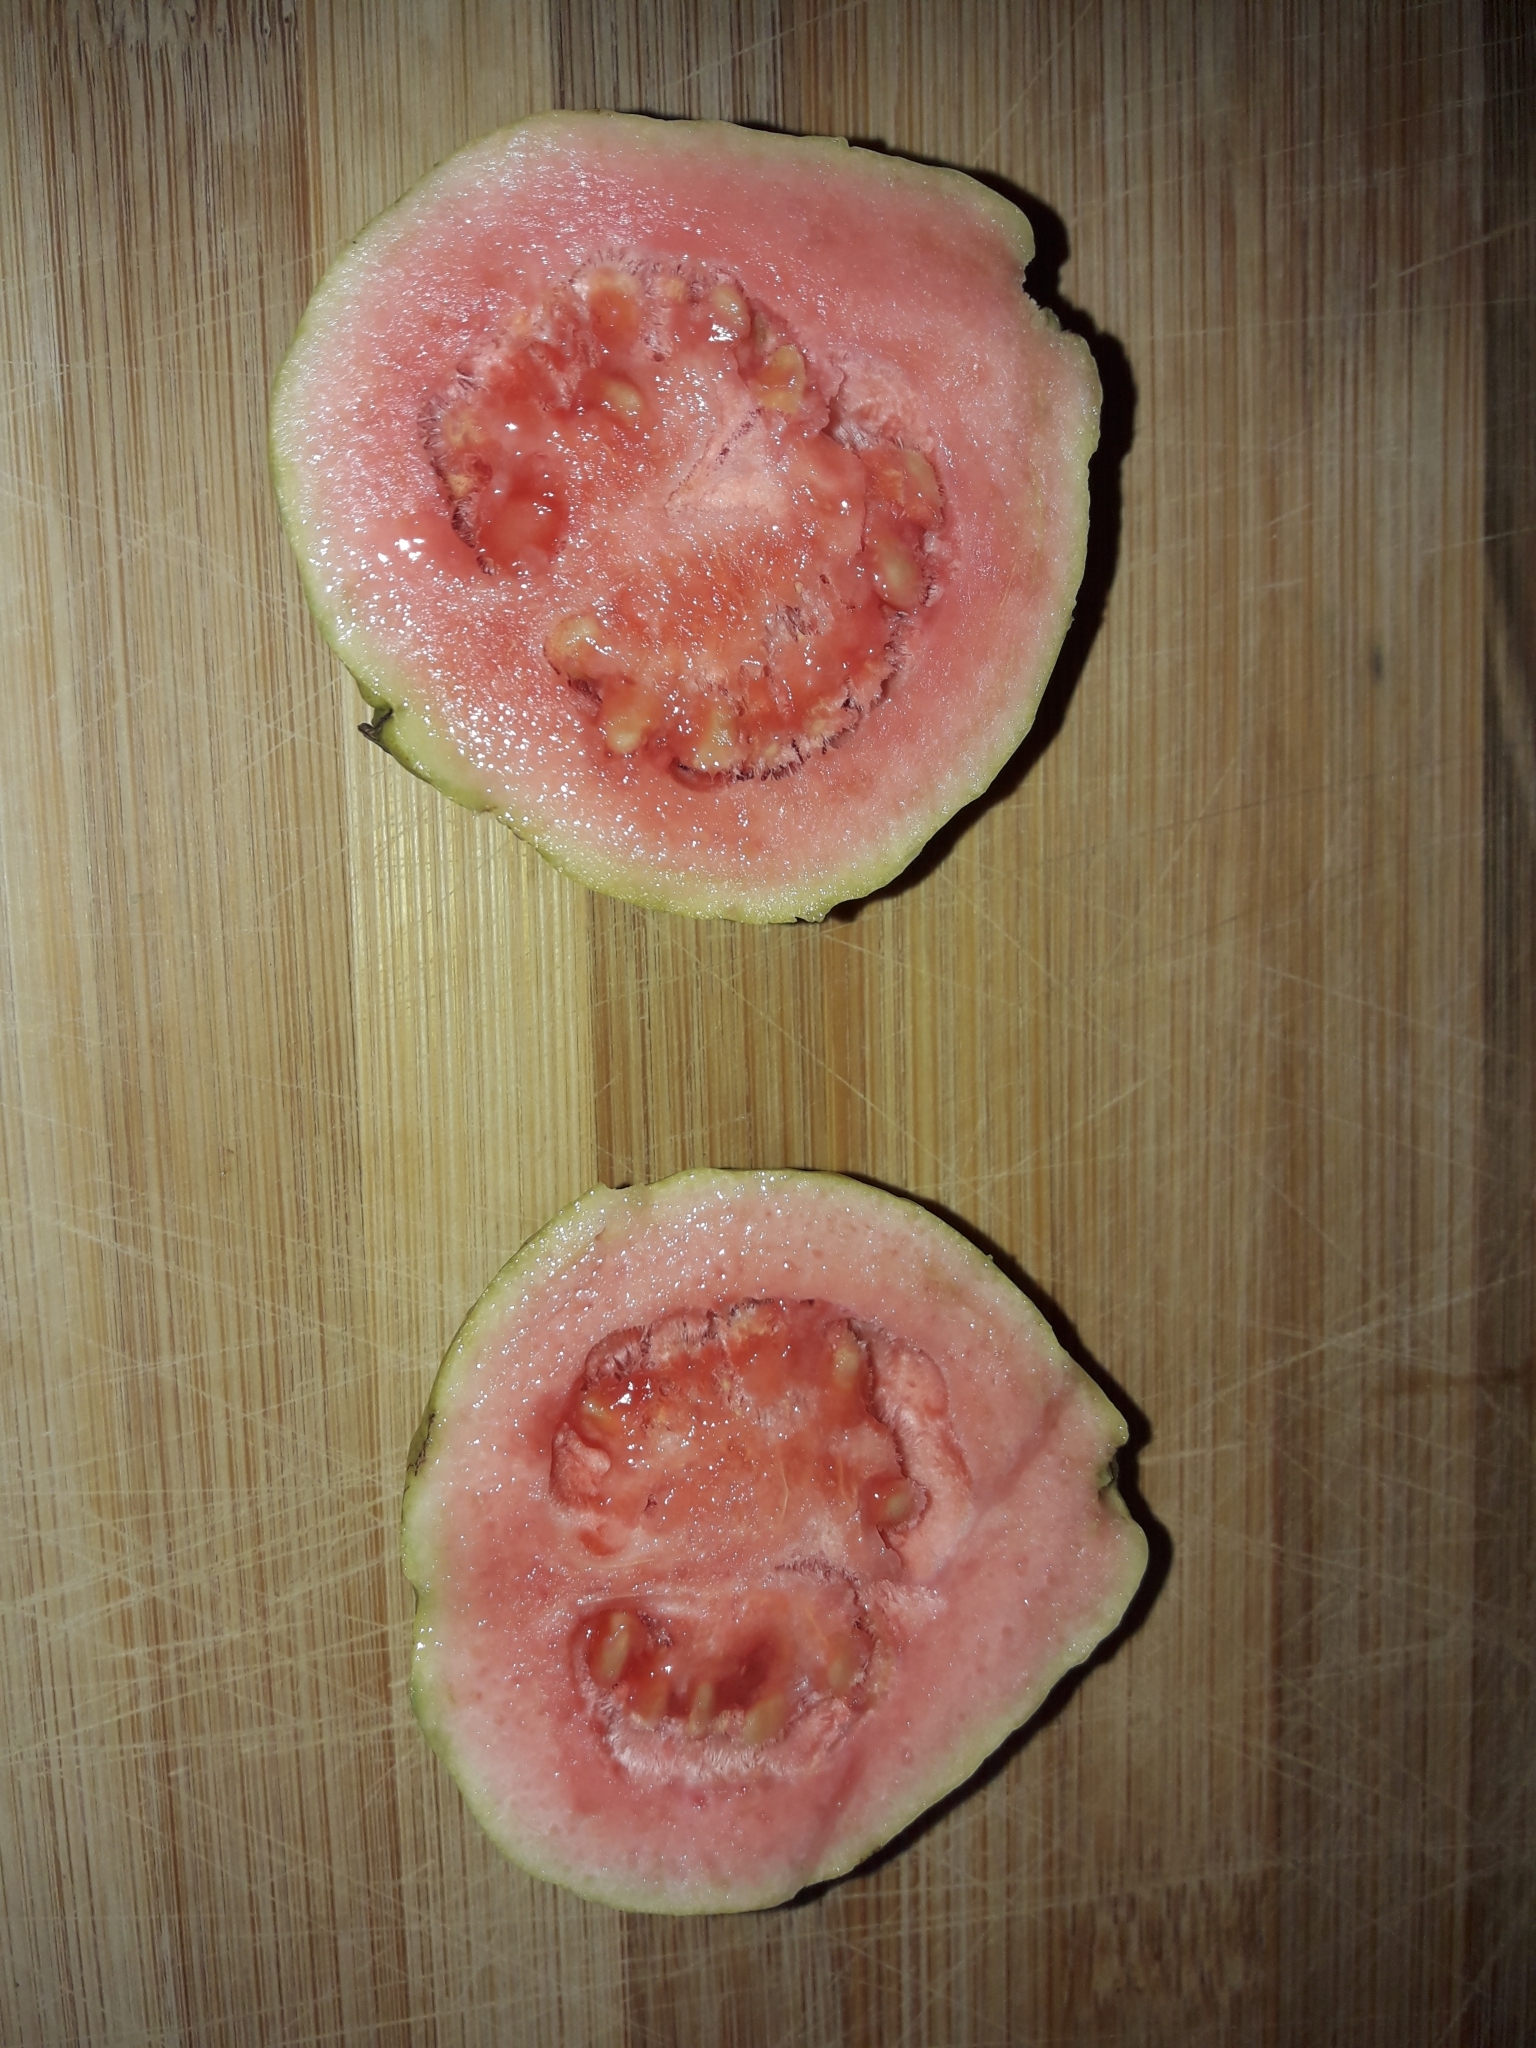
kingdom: Plantae
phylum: Tracheophyta
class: Magnoliopsida
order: Myrtales
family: Myrtaceae
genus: Psidium
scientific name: Psidium guajava
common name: Guava
